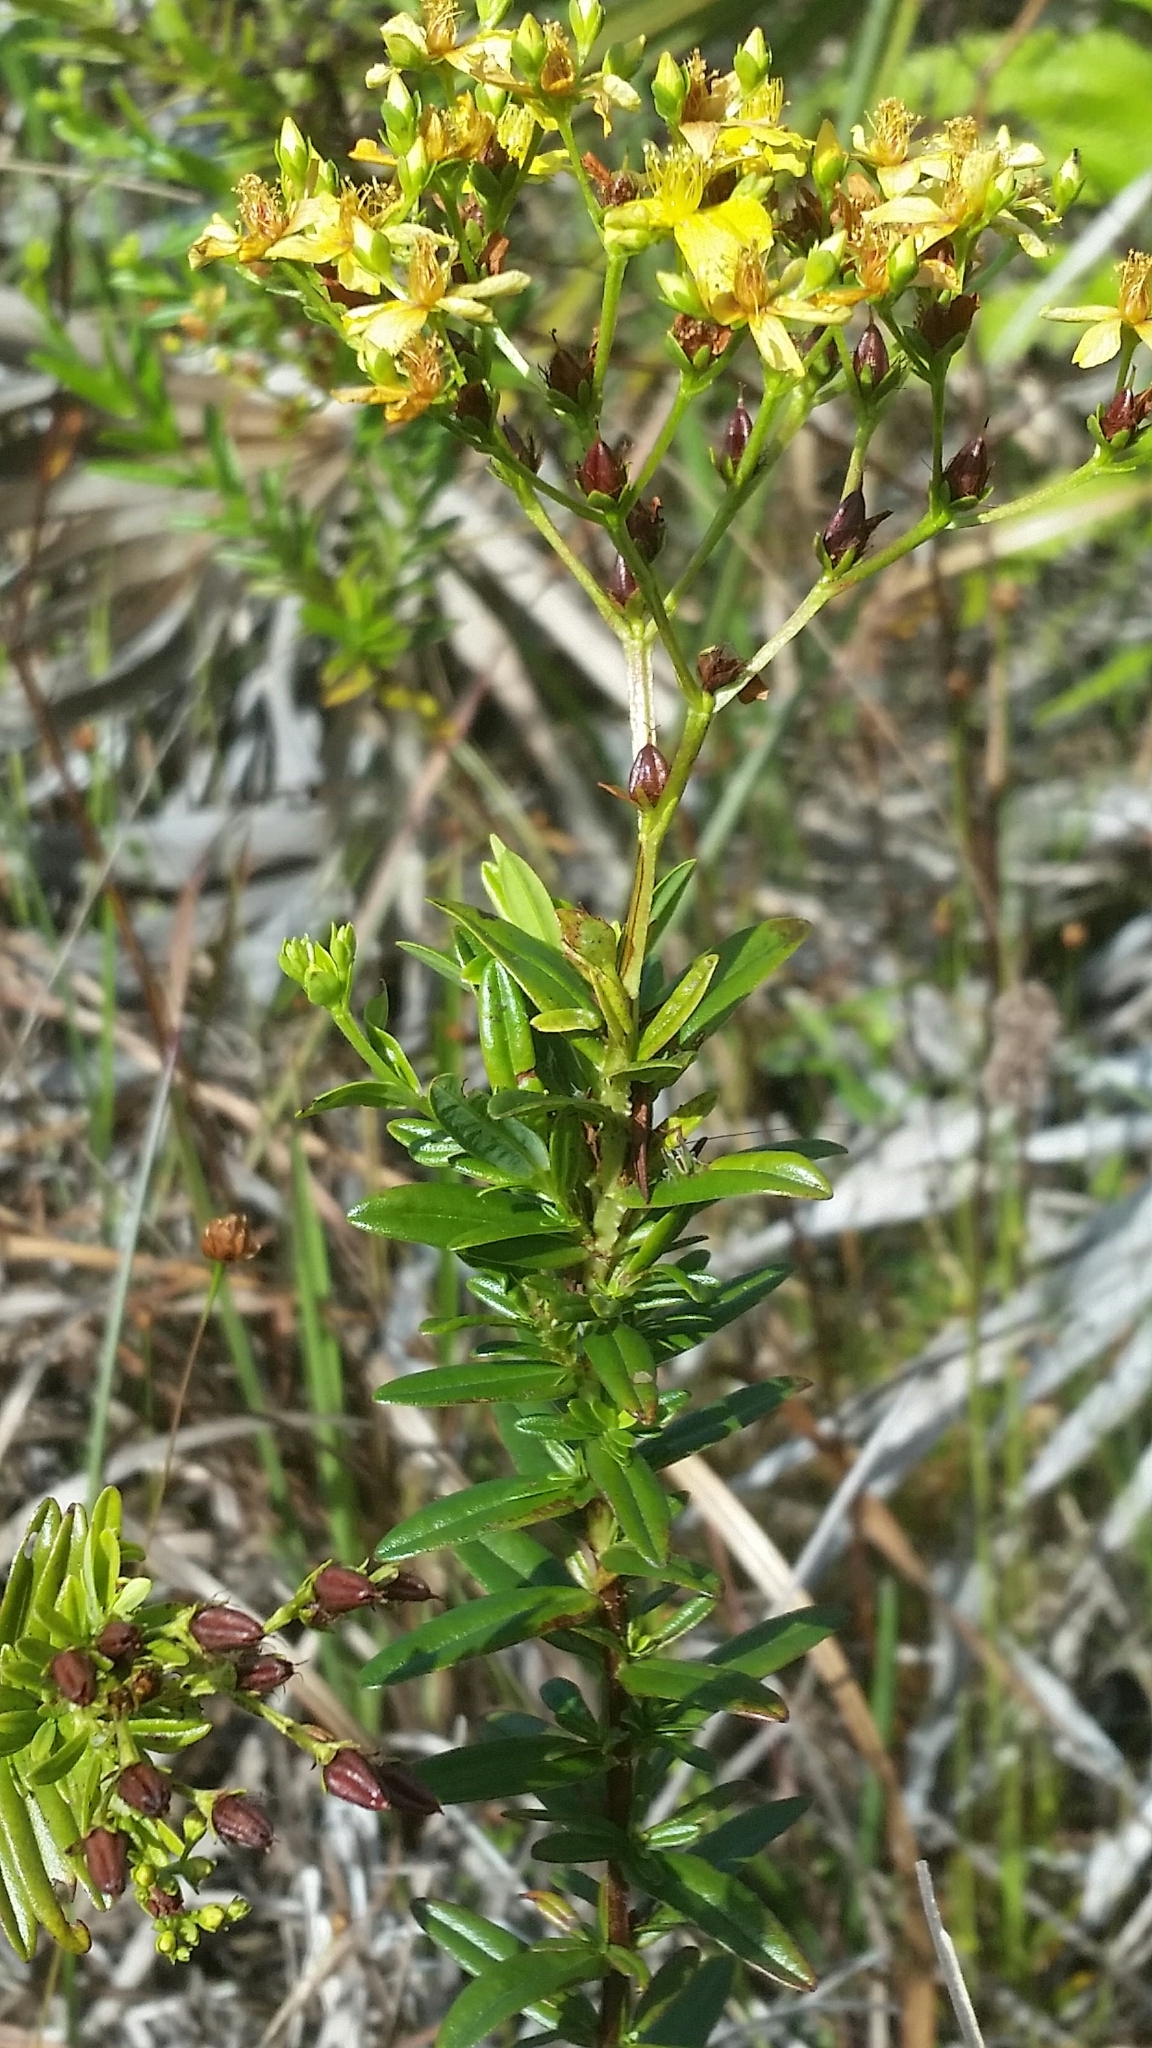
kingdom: Plantae
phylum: Tracheophyta
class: Magnoliopsida
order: Malpighiales
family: Hypericaceae
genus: Hypericum
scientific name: Hypericum cistifolium
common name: Round-pod st. john's-wort
